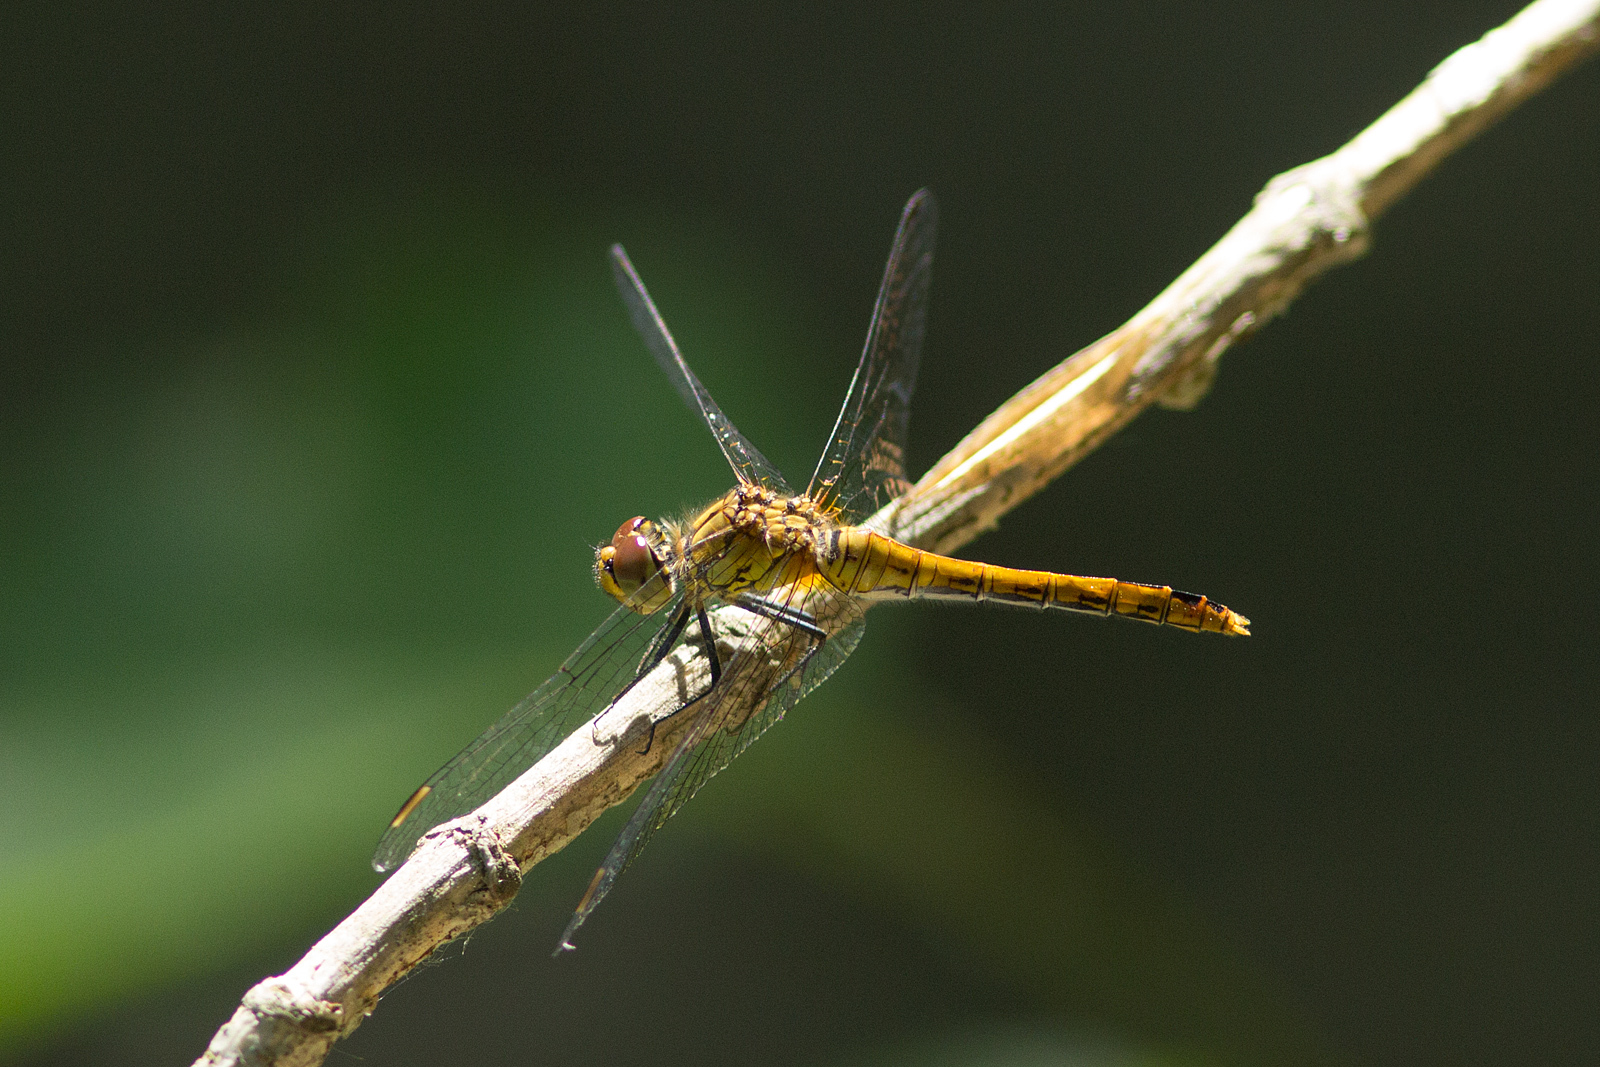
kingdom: Animalia
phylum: Arthropoda
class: Insecta
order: Odonata
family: Libellulidae
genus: Sympetrum
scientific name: Sympetrum sanguineum
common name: Ruddy darter
